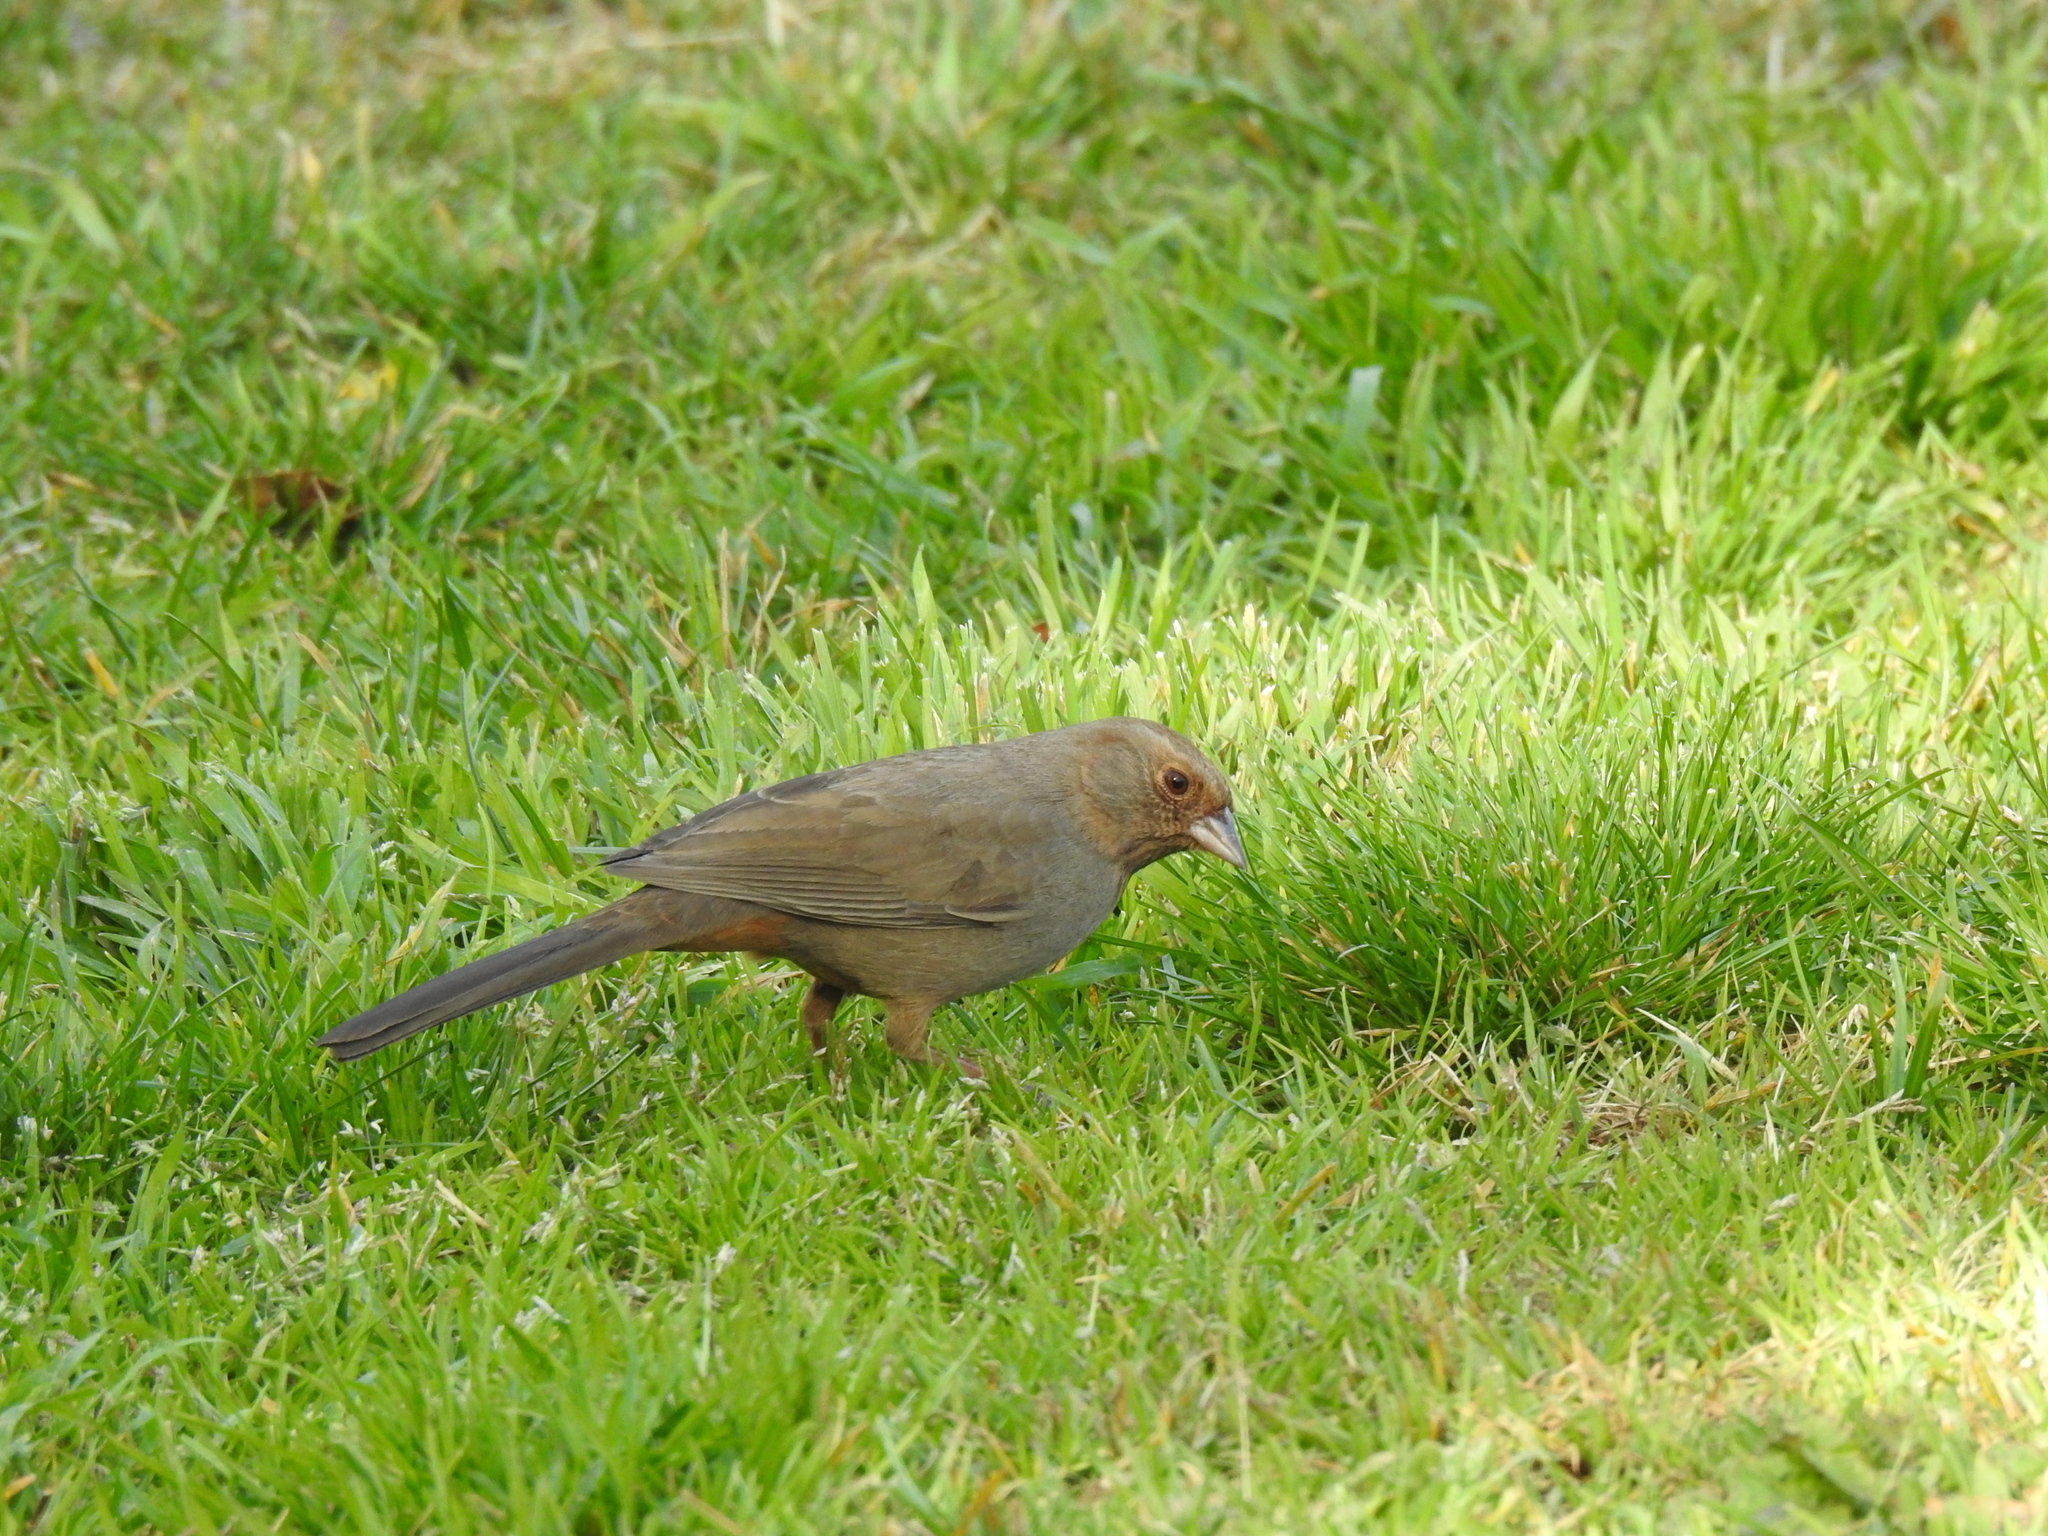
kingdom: Animalia
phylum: Chordata
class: Aves
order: Passeriformes
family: Passerellidae
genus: Melozone
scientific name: Melozone crissalis
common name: California towhee
